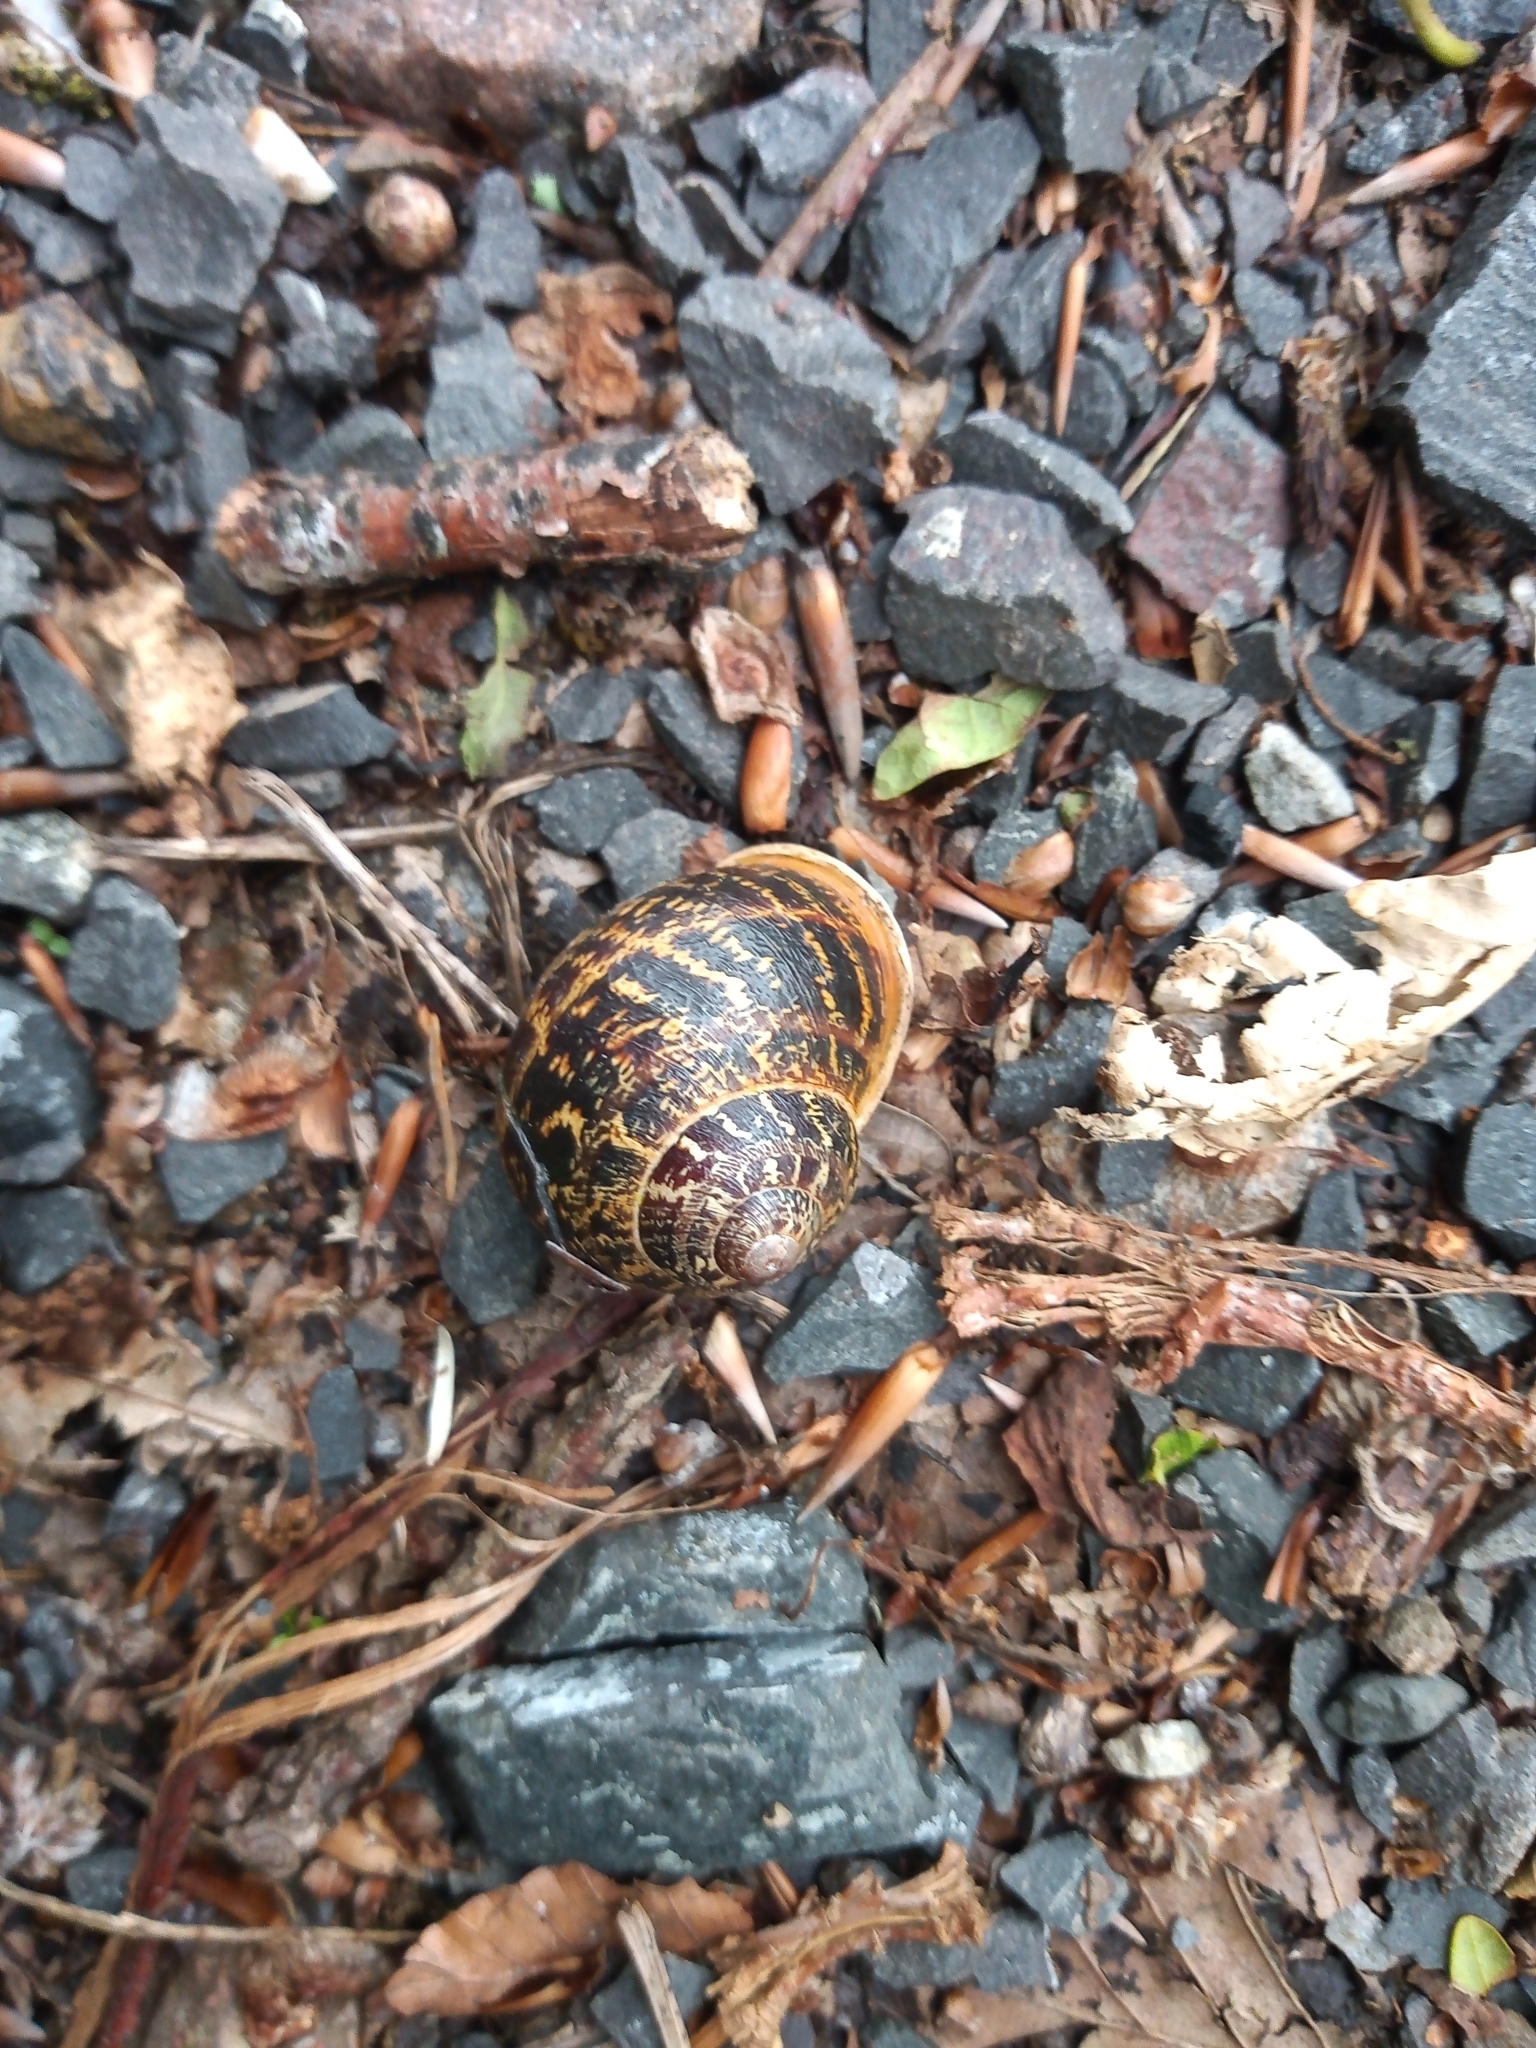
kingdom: Animalia
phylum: Mollusca
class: Gastropoda
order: Stylommatophora
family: Helicidae
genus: Cornu
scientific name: Cornu aspersum
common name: Brown garden snail
